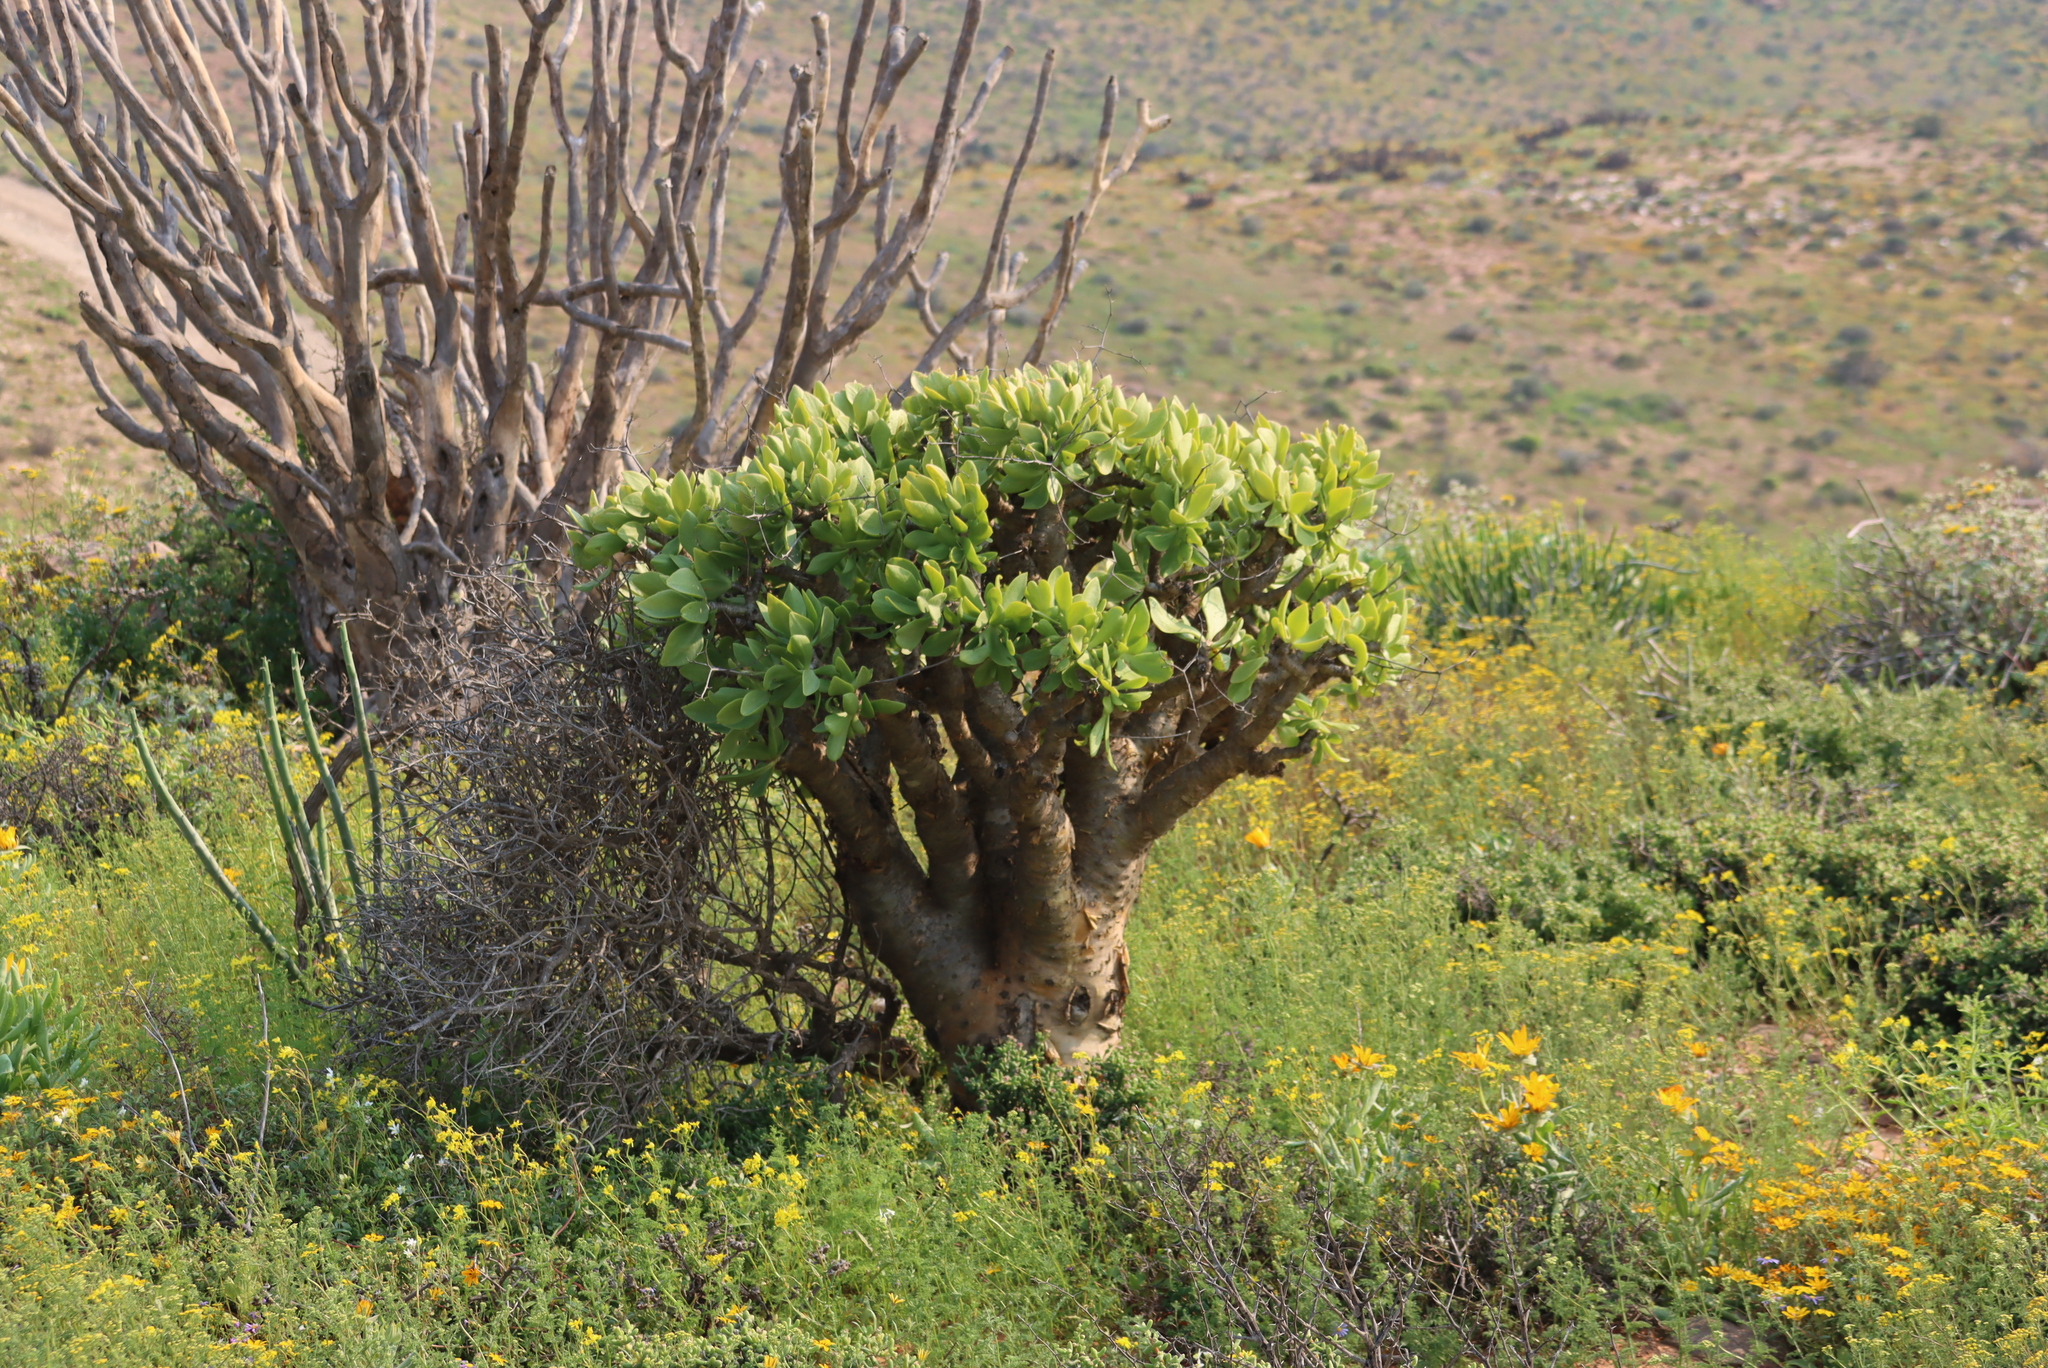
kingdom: Plantae
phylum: Tracheophyta
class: Magnoliopsida
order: Saxifragales
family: Crassulaceae
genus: Tylecodon
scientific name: Tylecodon paniculatus
